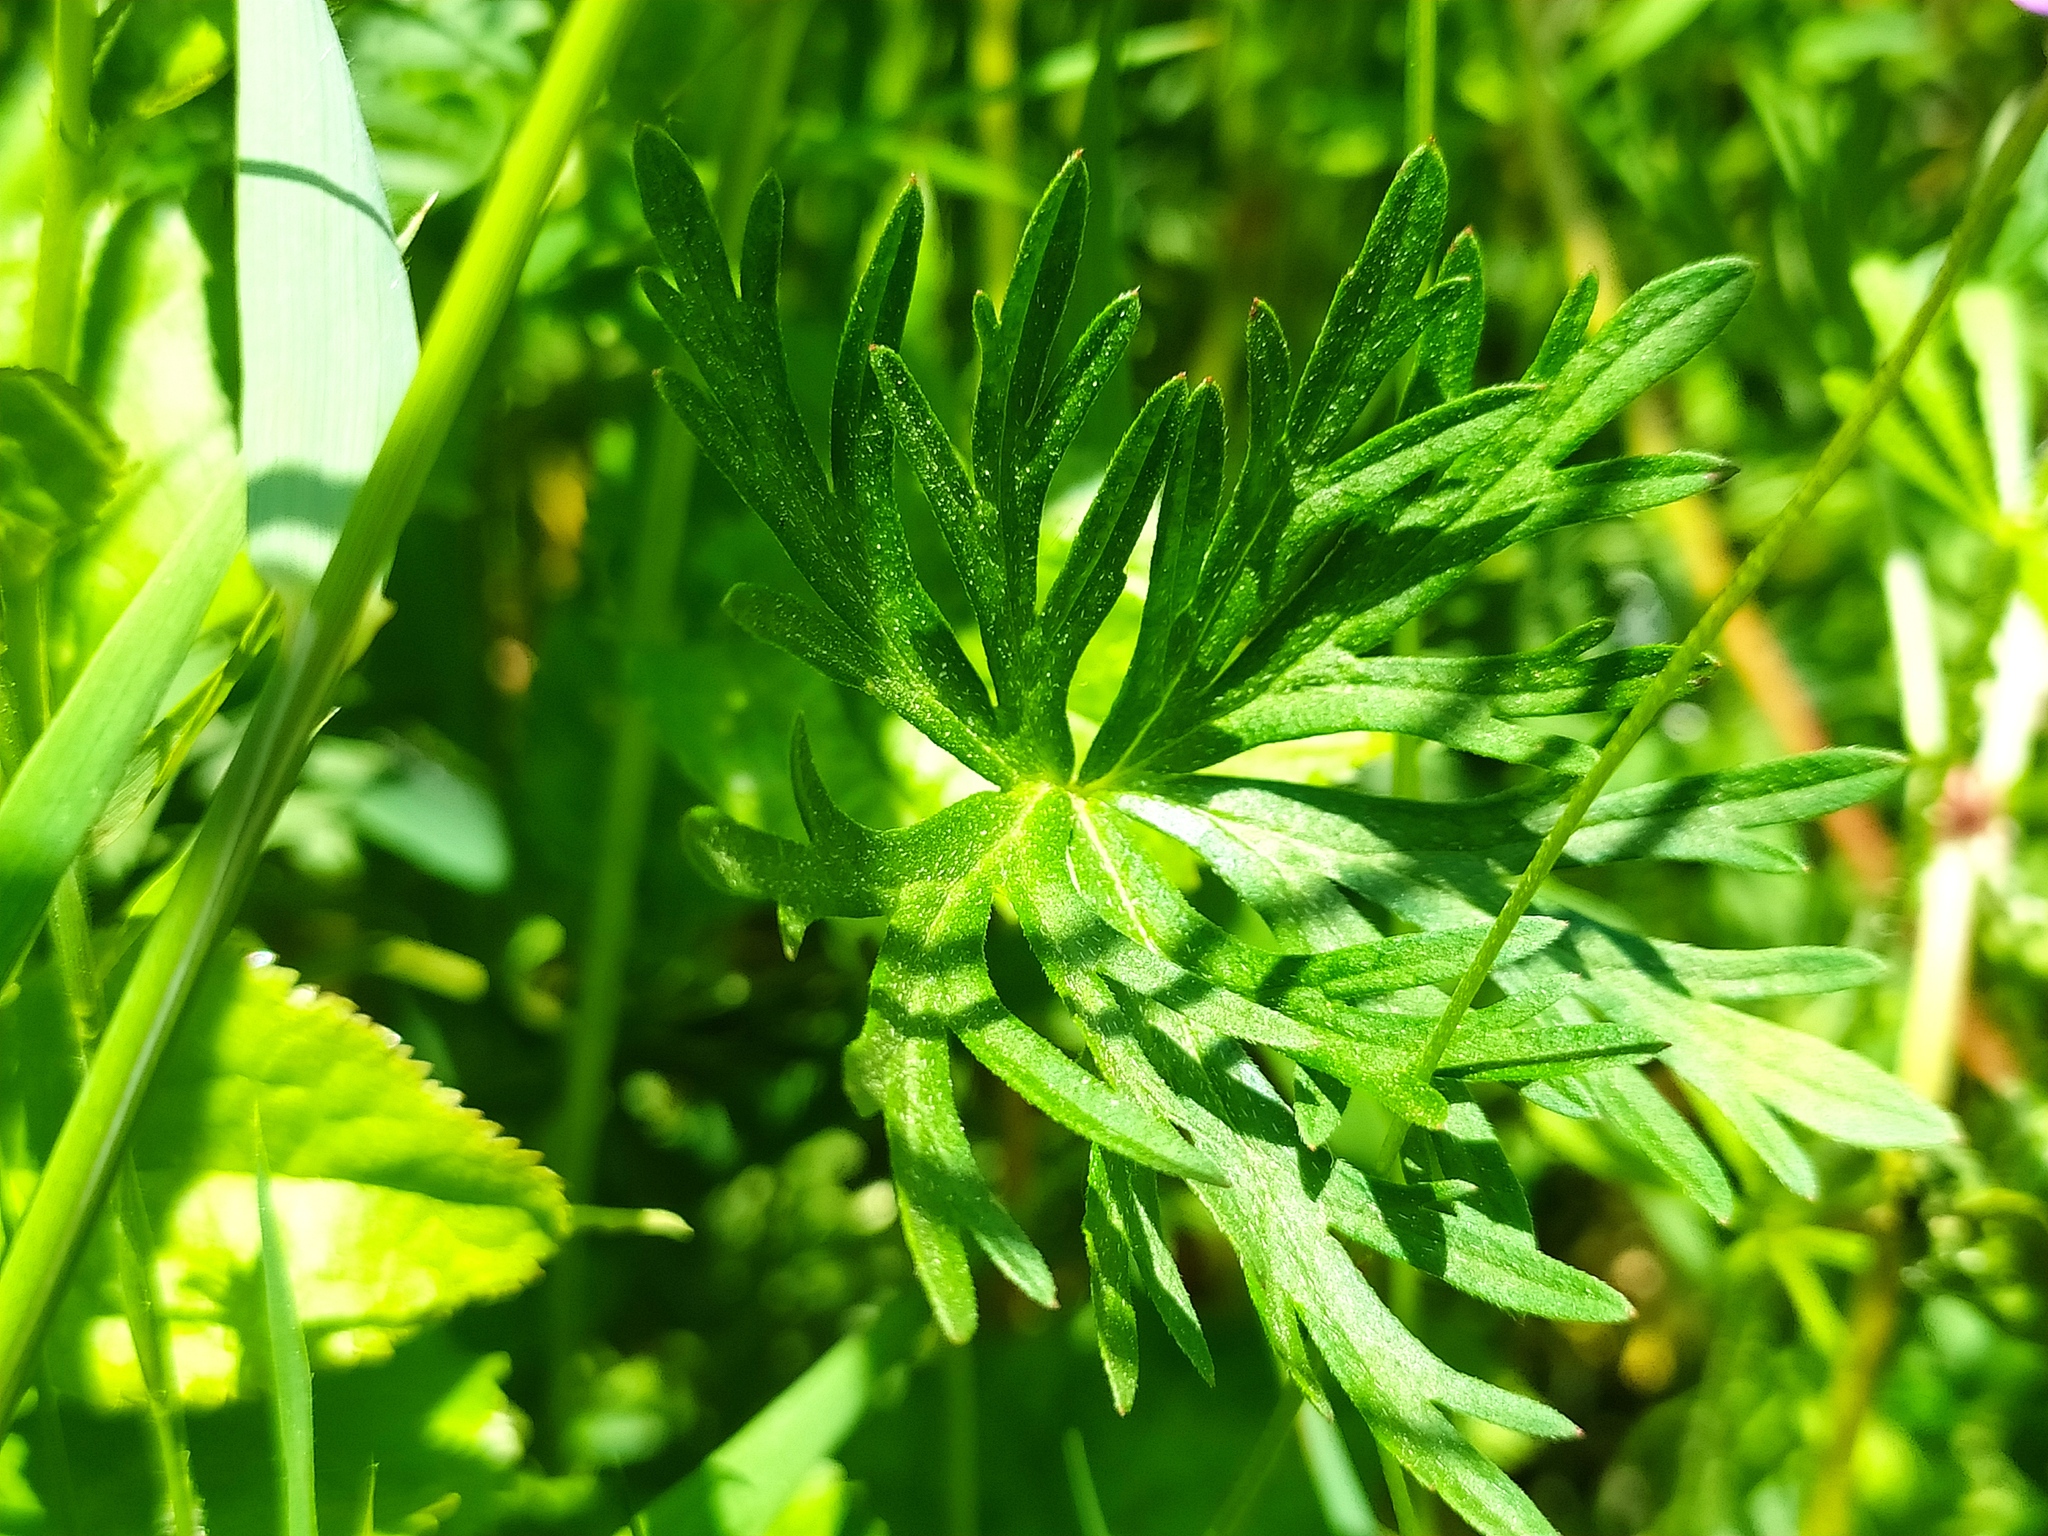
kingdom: Plantae
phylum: Tracheophyta
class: Magnoliopsida
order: Geraniales
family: Geraniaceae
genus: Geranium
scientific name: Geranium columbinum
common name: Long-stalked crane's-bill
